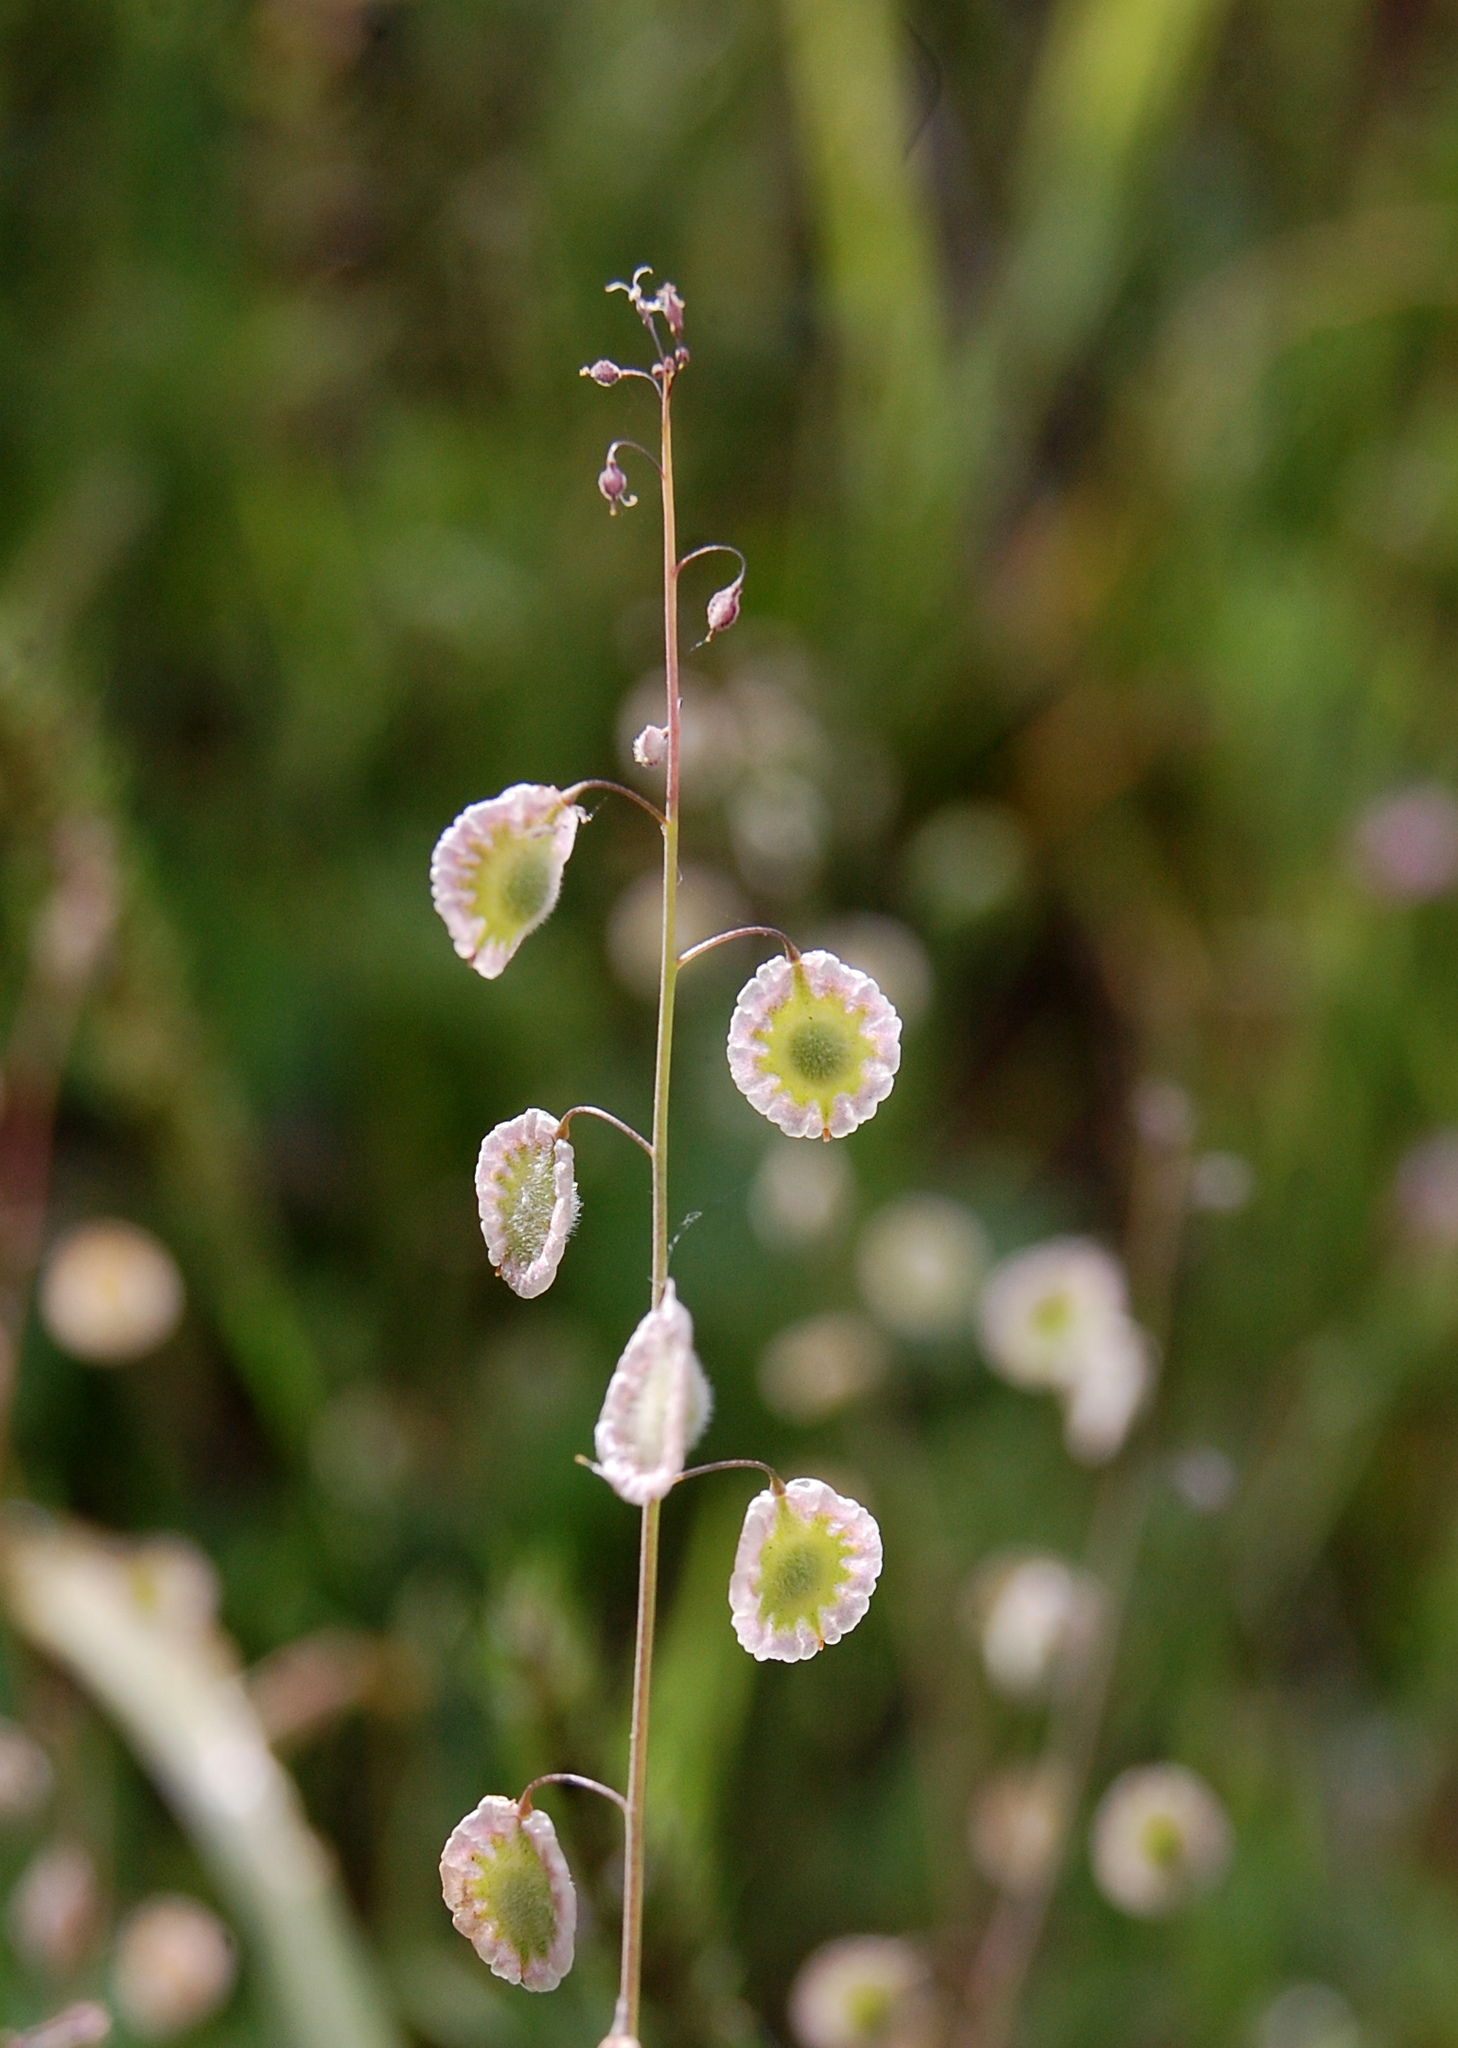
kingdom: Plantae
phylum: Tracheophyta
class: Magnoliopsida
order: Brassicales
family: Brassicaceae
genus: Thysanocarpus
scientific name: Thysanocarpus curvipes
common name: Sand fringepod
